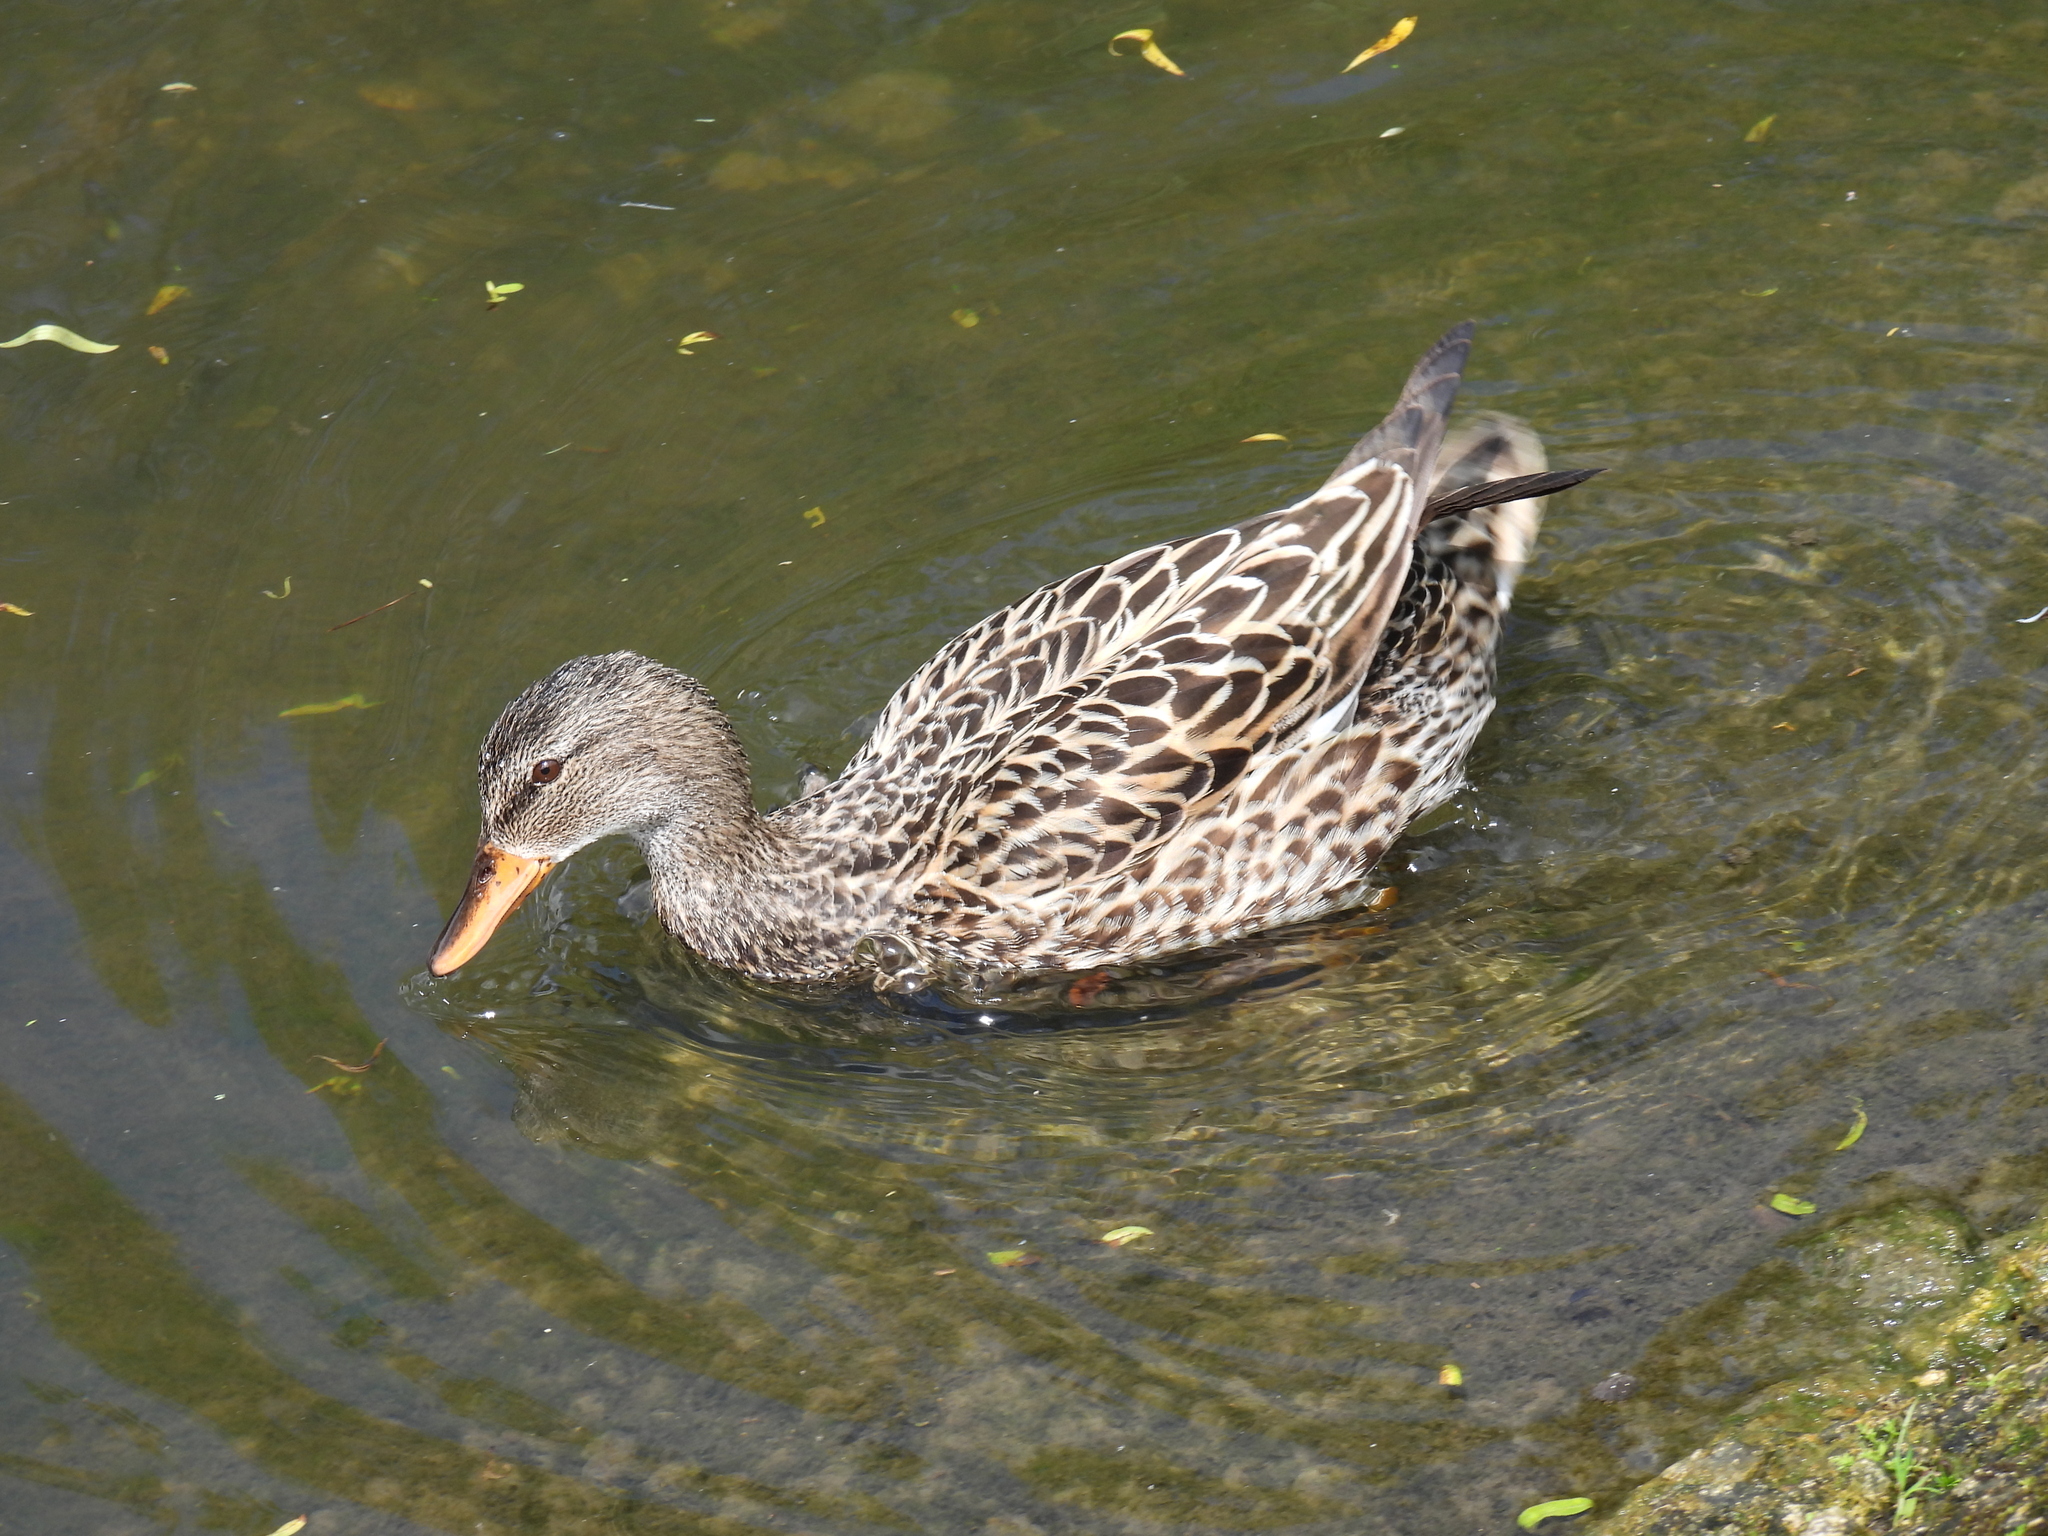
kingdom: Animalia
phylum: Chordata
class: Aves
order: Anseriformes
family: Anatidae
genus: Mareca
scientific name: Mareca strepera
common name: Gadwall
